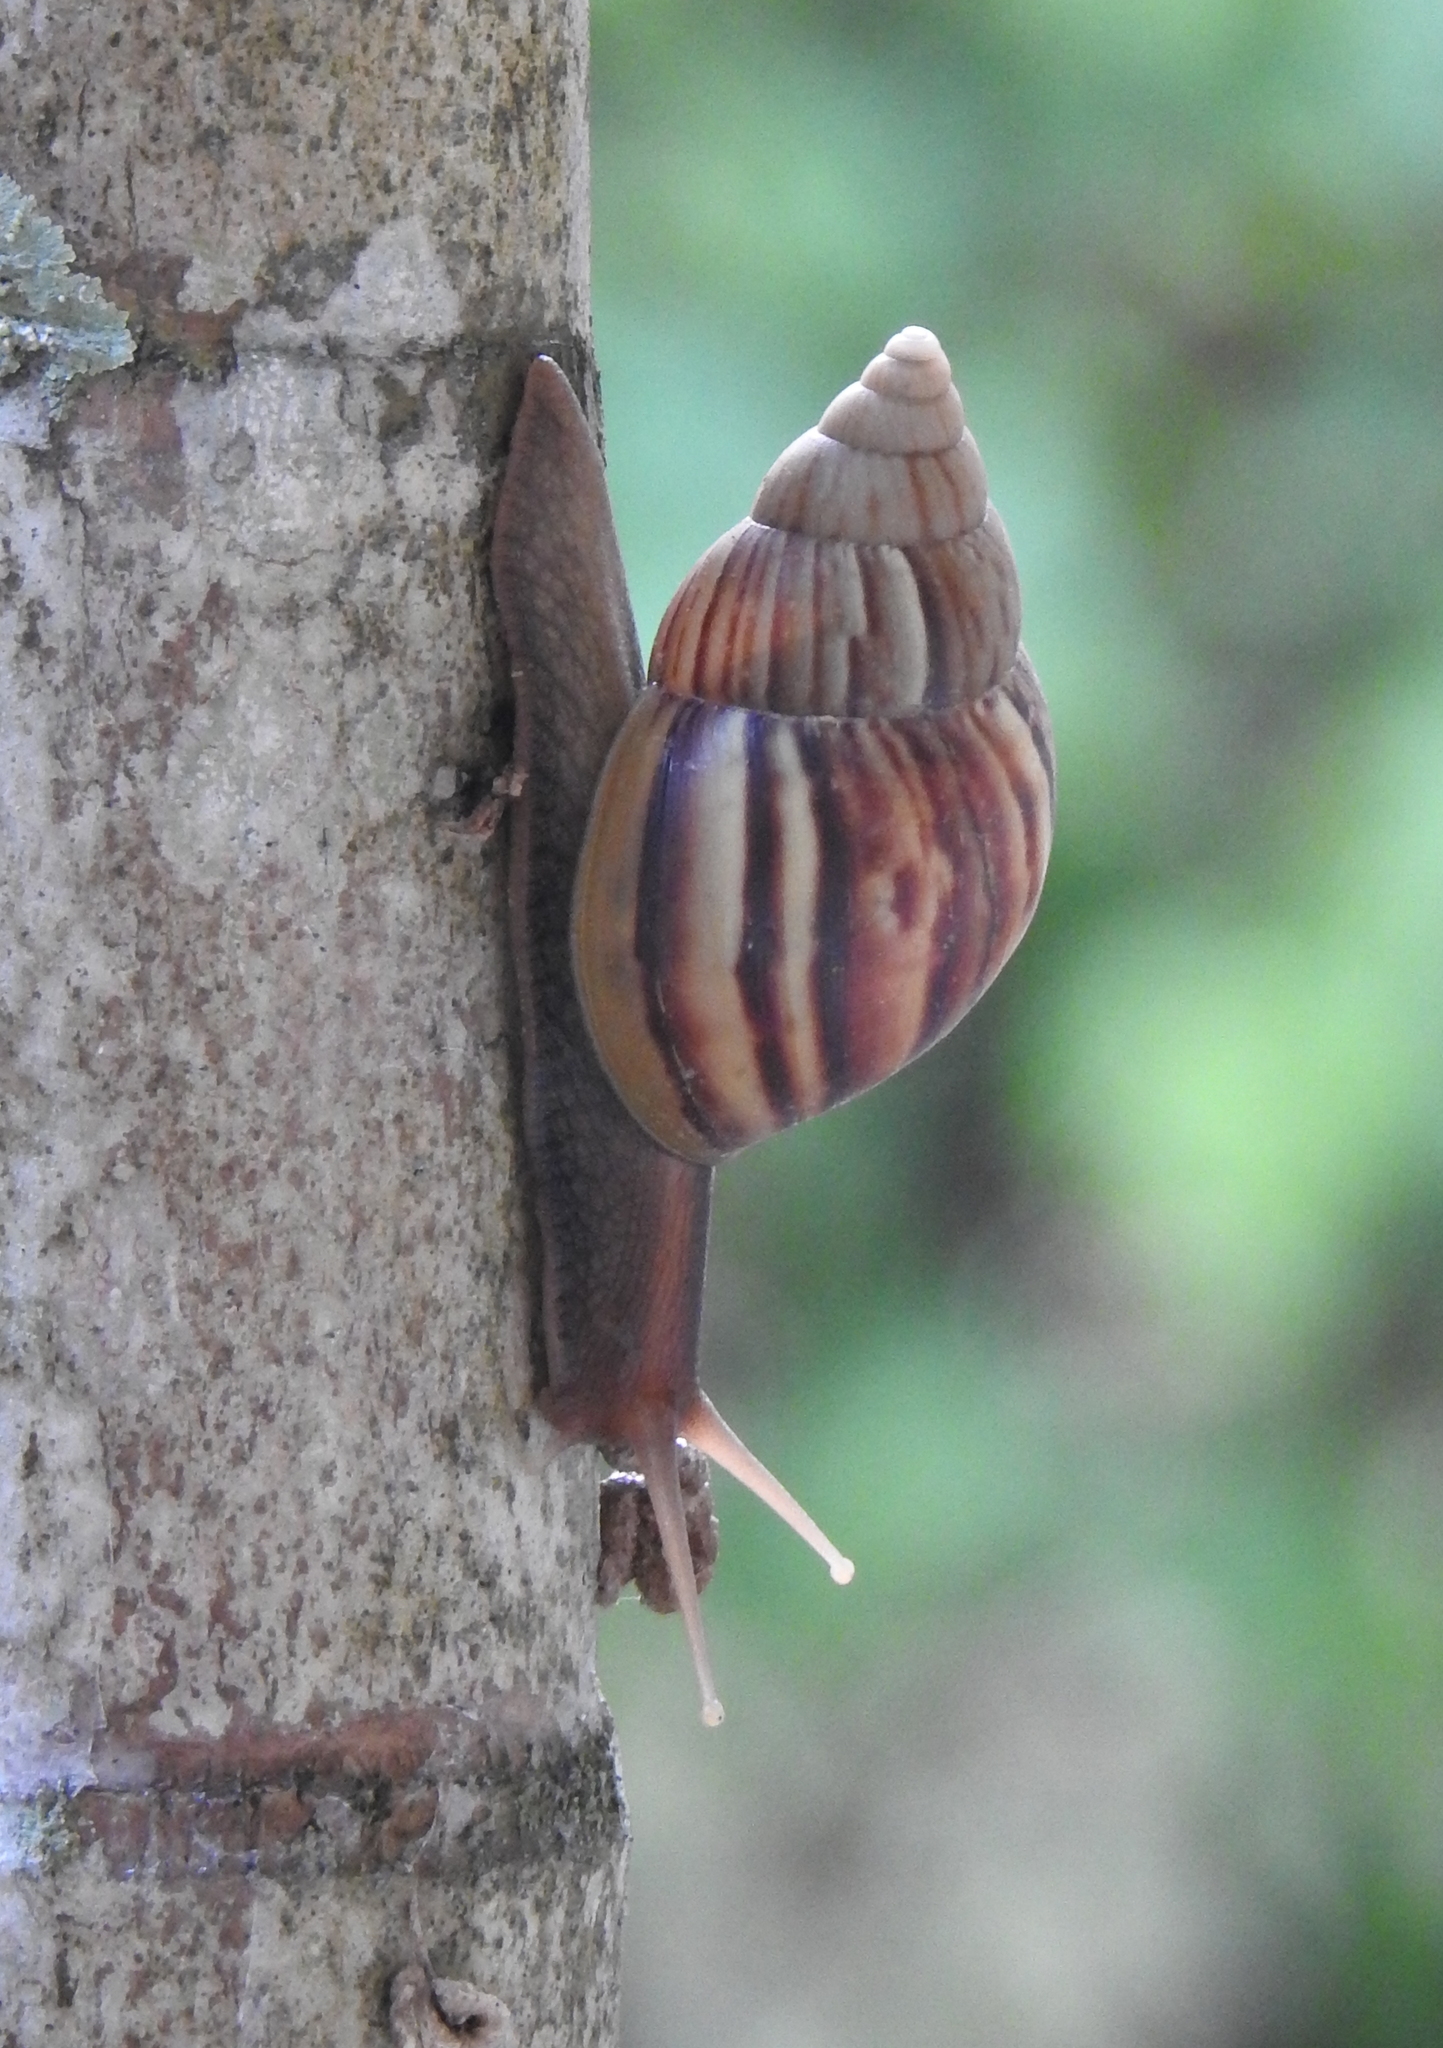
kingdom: Animalia
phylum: Mollusca
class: Gastropoda
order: Stylommatophora
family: Achatinidae
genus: Lissachatina
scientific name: Lissachatina fulica
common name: Giant african snail
